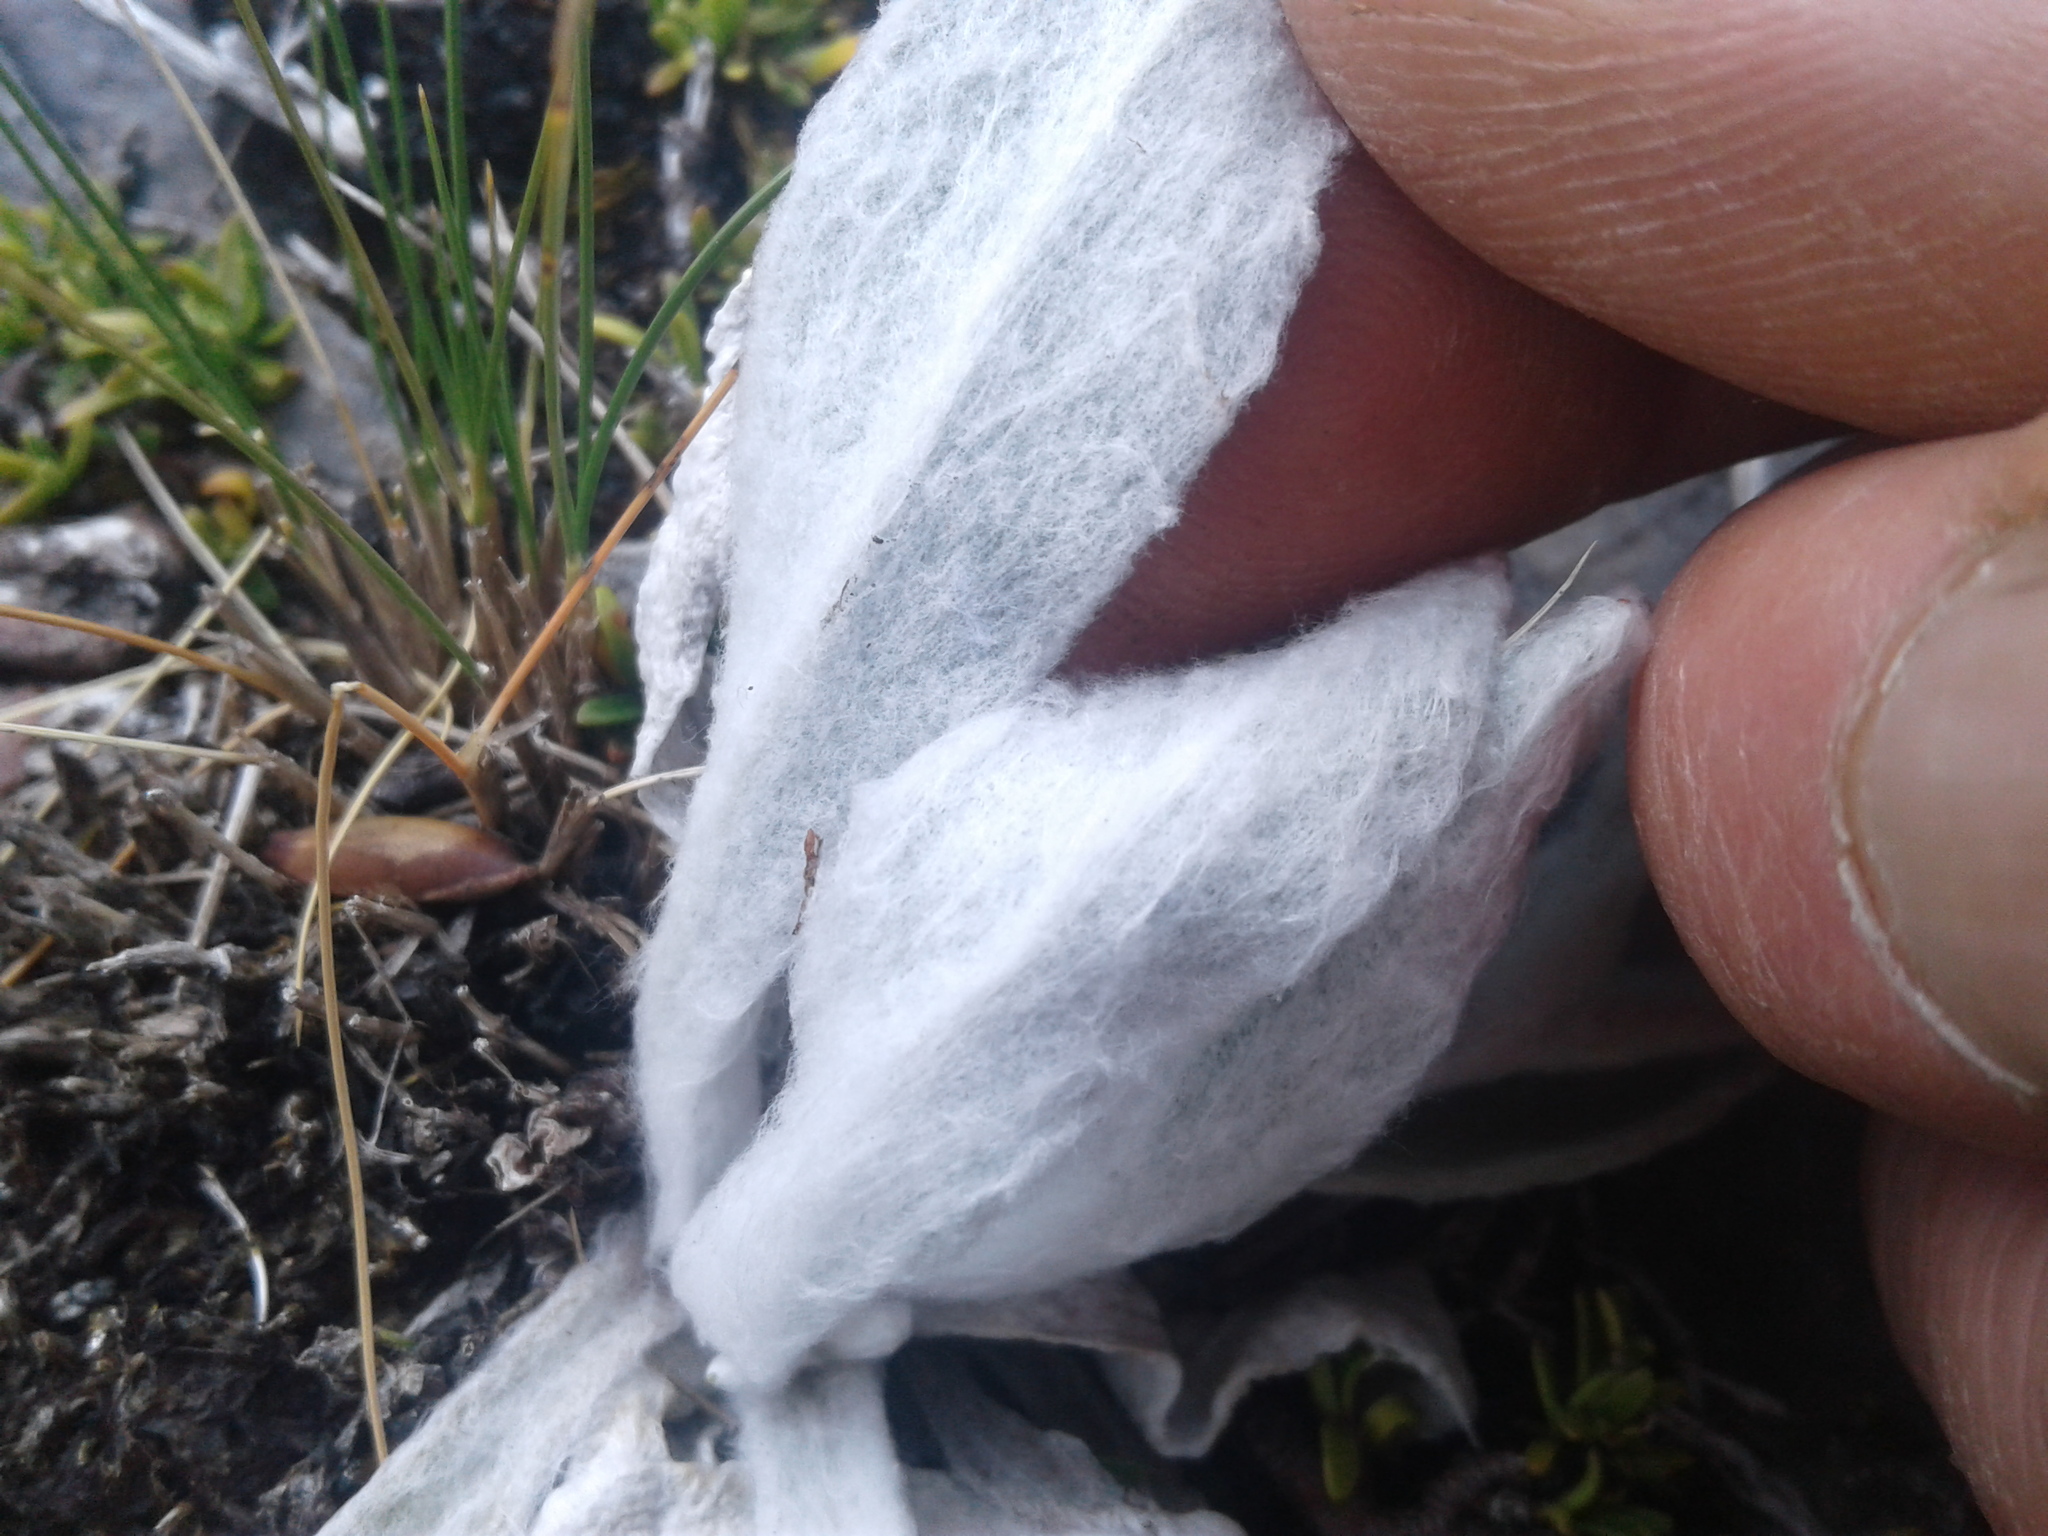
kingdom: Plantae
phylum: Tracheophyta
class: Magnoliopsida
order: Asterales
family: Asteraceae
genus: Craspedia
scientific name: Craspedia lanata
